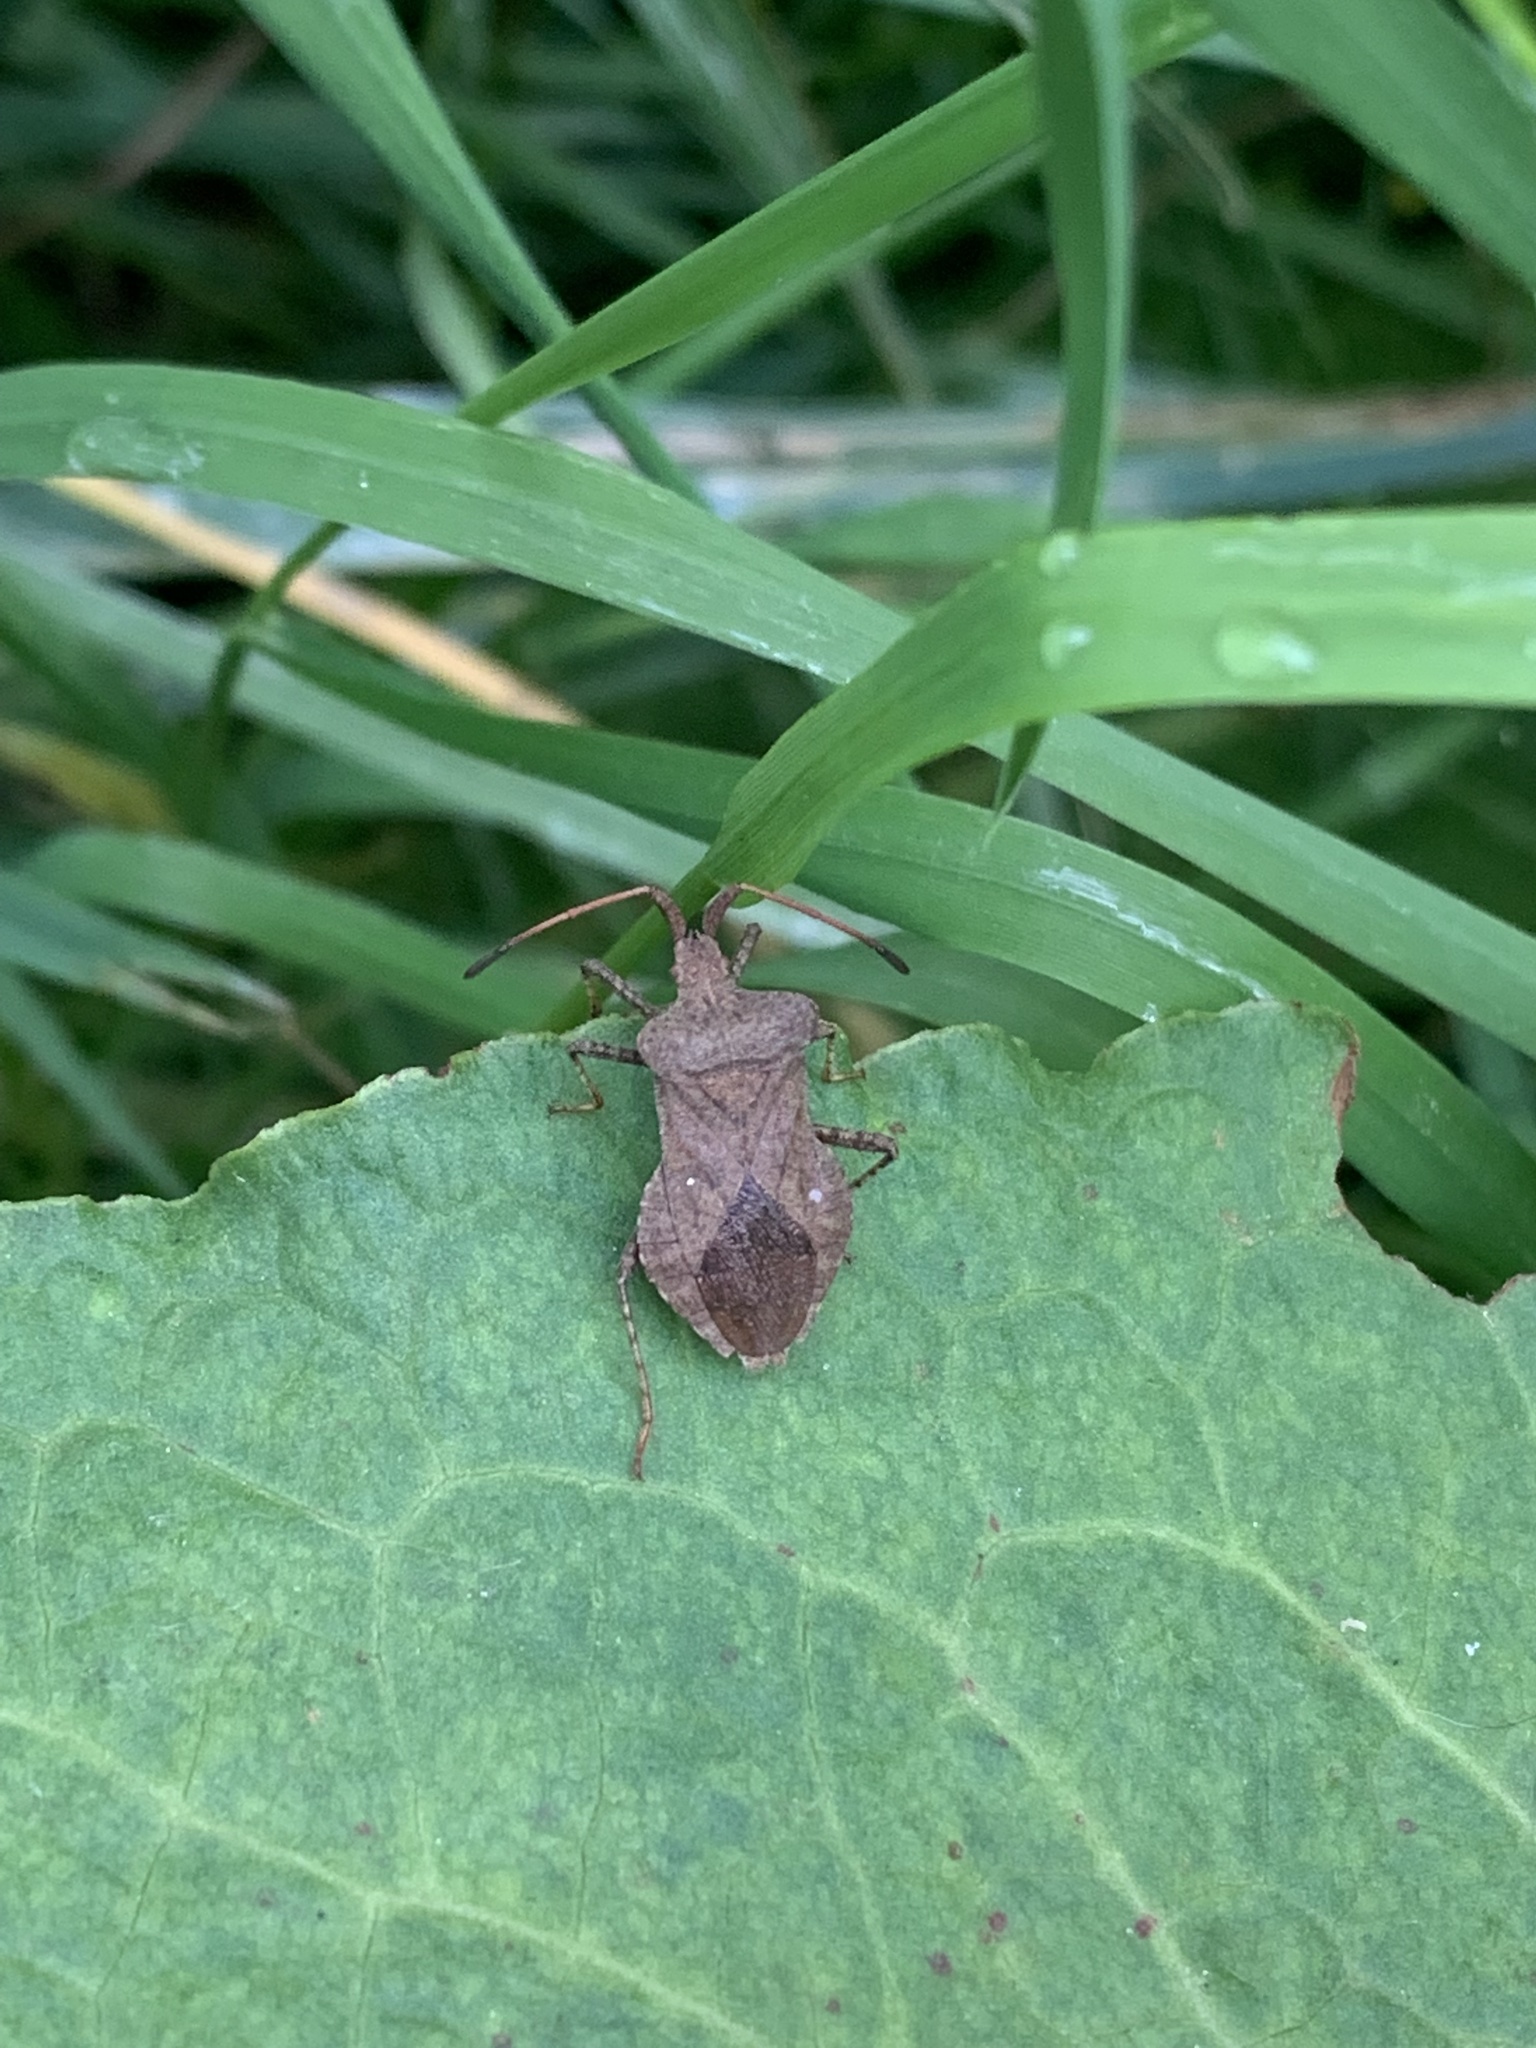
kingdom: Animalia
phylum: Arthropoda
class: Insecta
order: Hemiptera
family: Coreidae
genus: Coreus
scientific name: Coreus marginatus
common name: Dock bug
